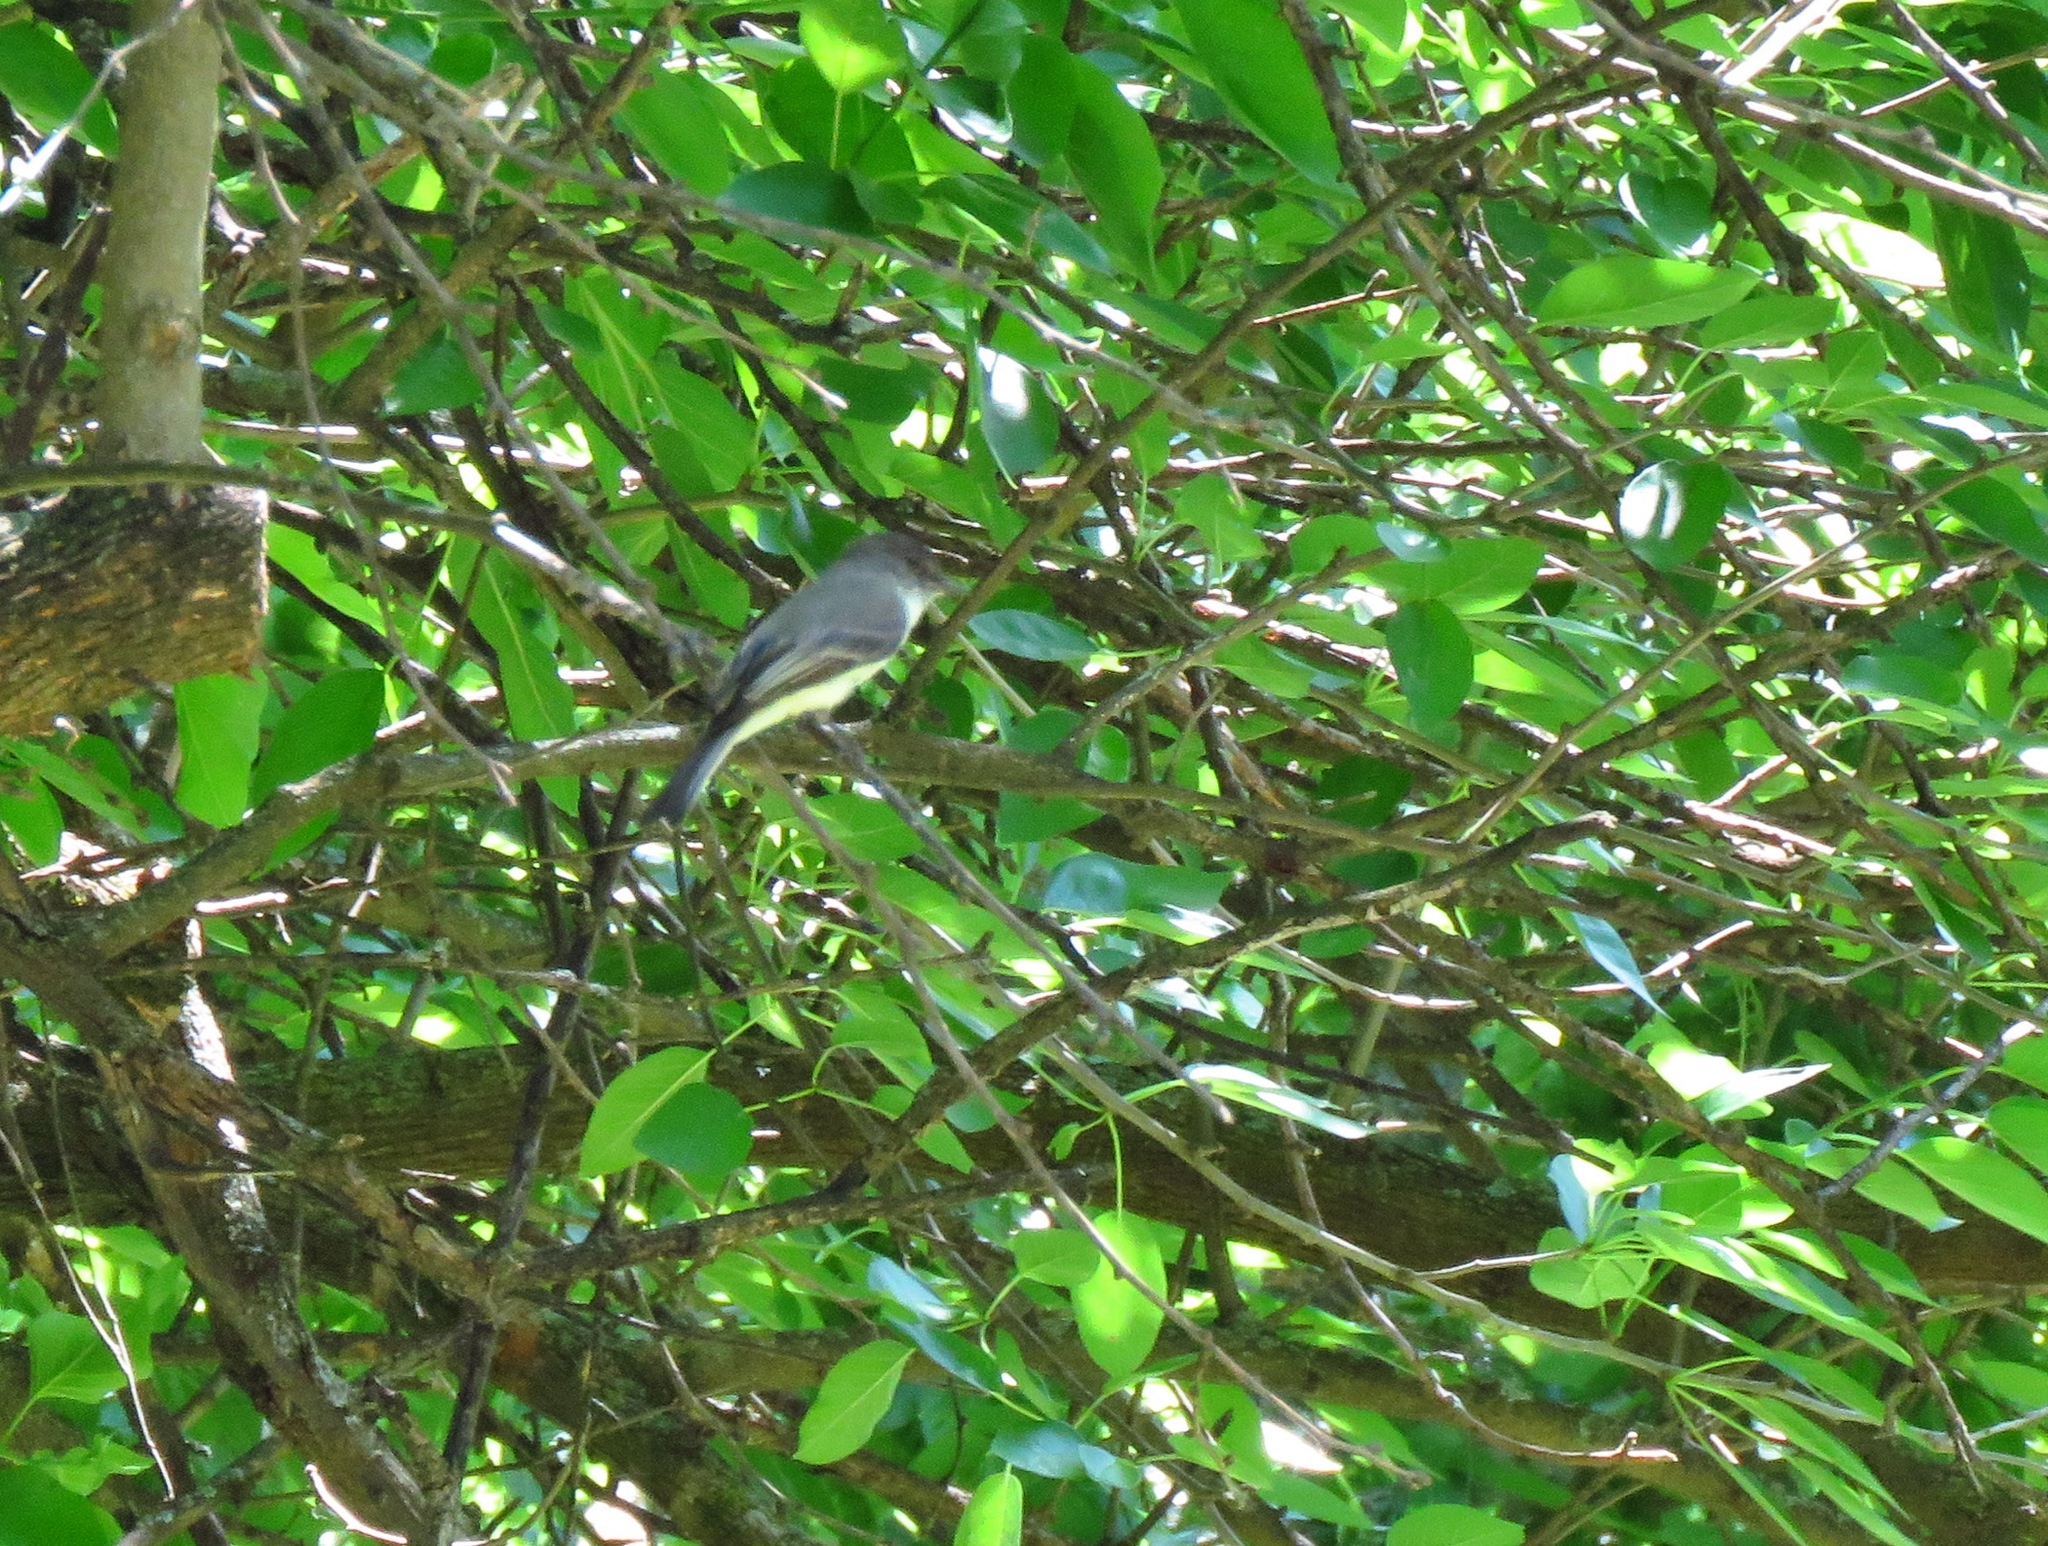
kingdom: Animalia
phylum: Chordata
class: Aves
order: Passeriformes
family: Tyrannidae
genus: Sayornis
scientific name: Sayornis phoebe
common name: Eastern phoebe
